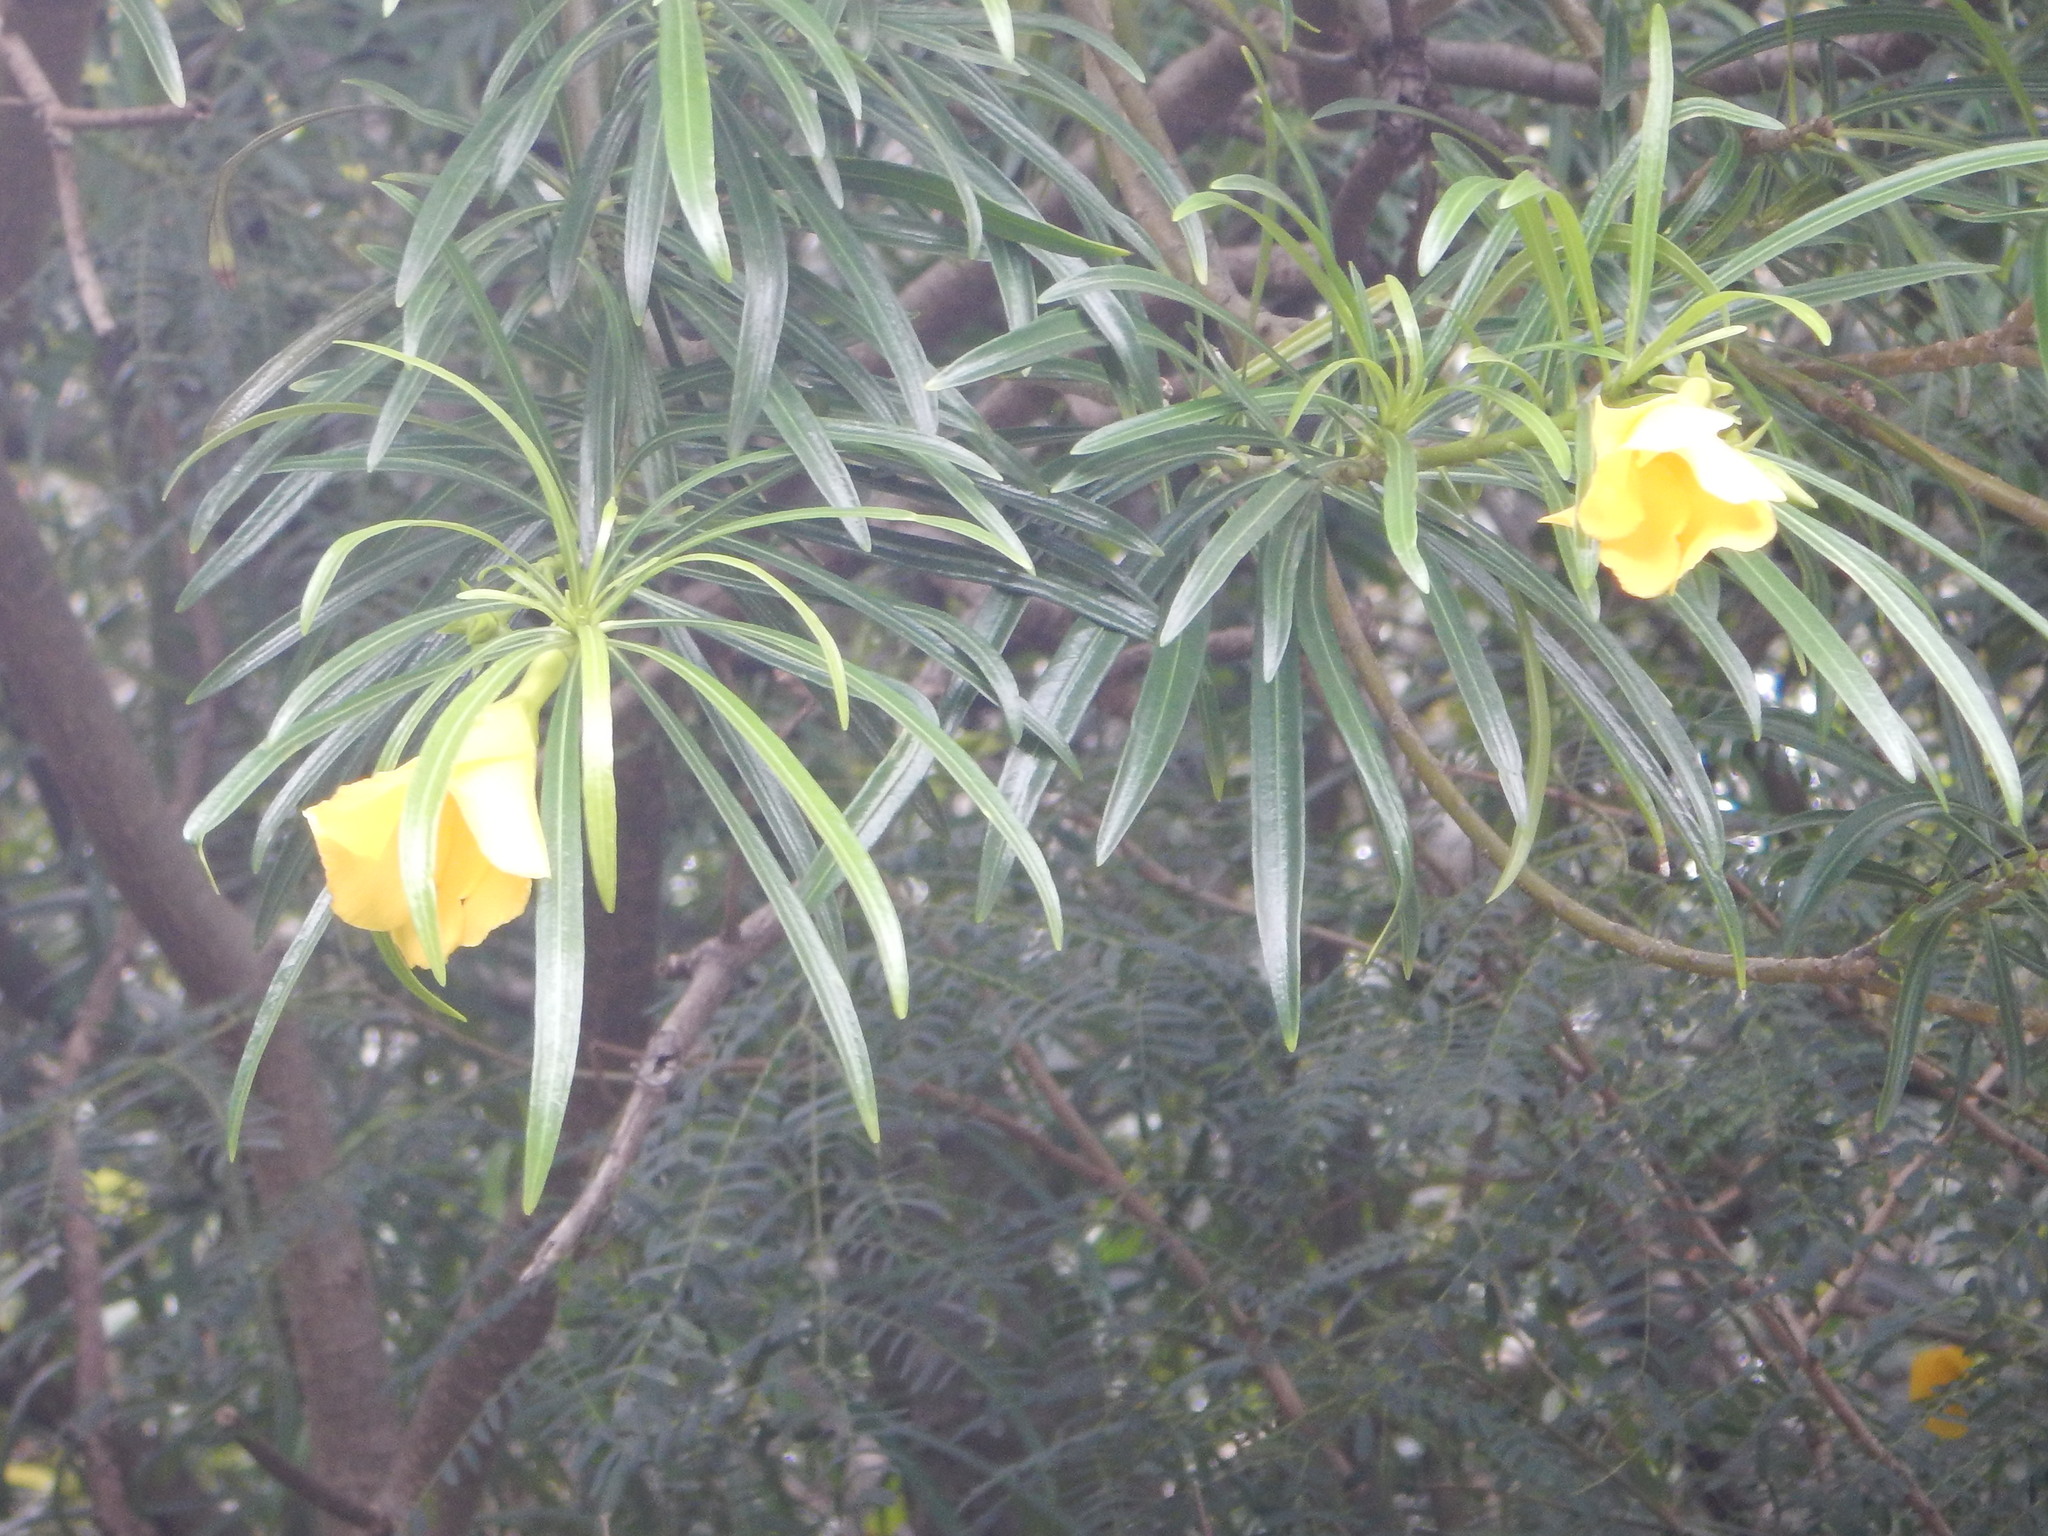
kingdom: Plantae
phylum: Tracheophyta
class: Magnoliopsida
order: Gentianales
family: Apocynaceae
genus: Cascabela
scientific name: Cascabela thevetia
